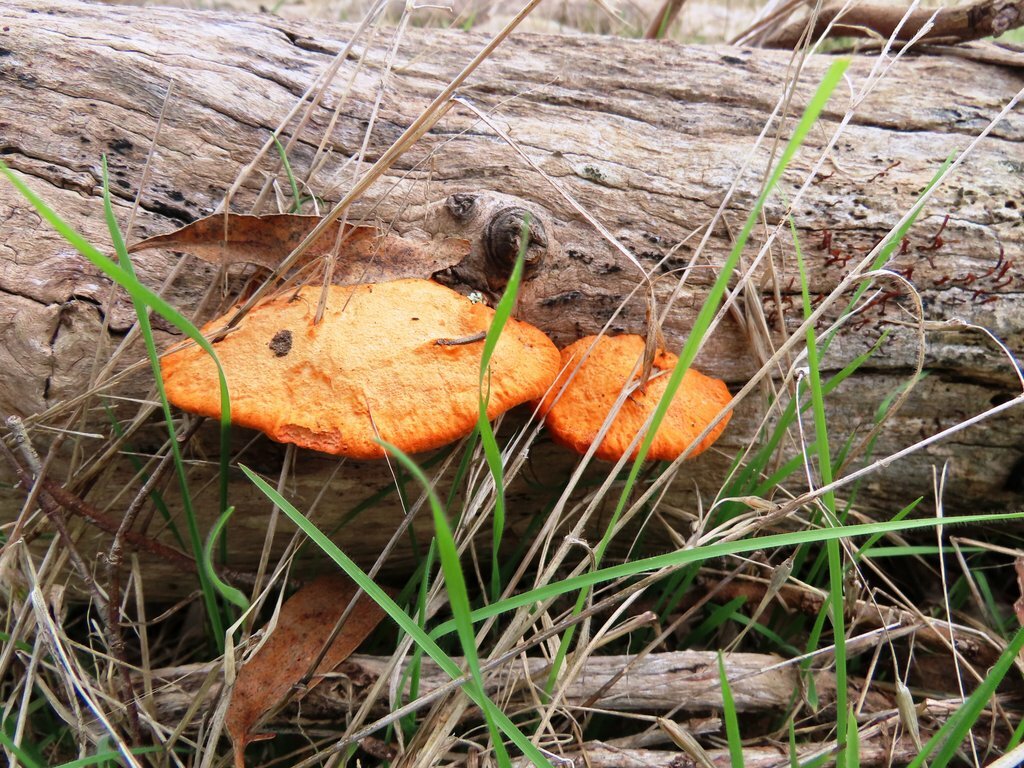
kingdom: Fungi
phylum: Basidiomycota
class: Agaricomycetes
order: Polyporales
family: Polyporaceae
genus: Trametes
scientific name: Trametes coccinea
